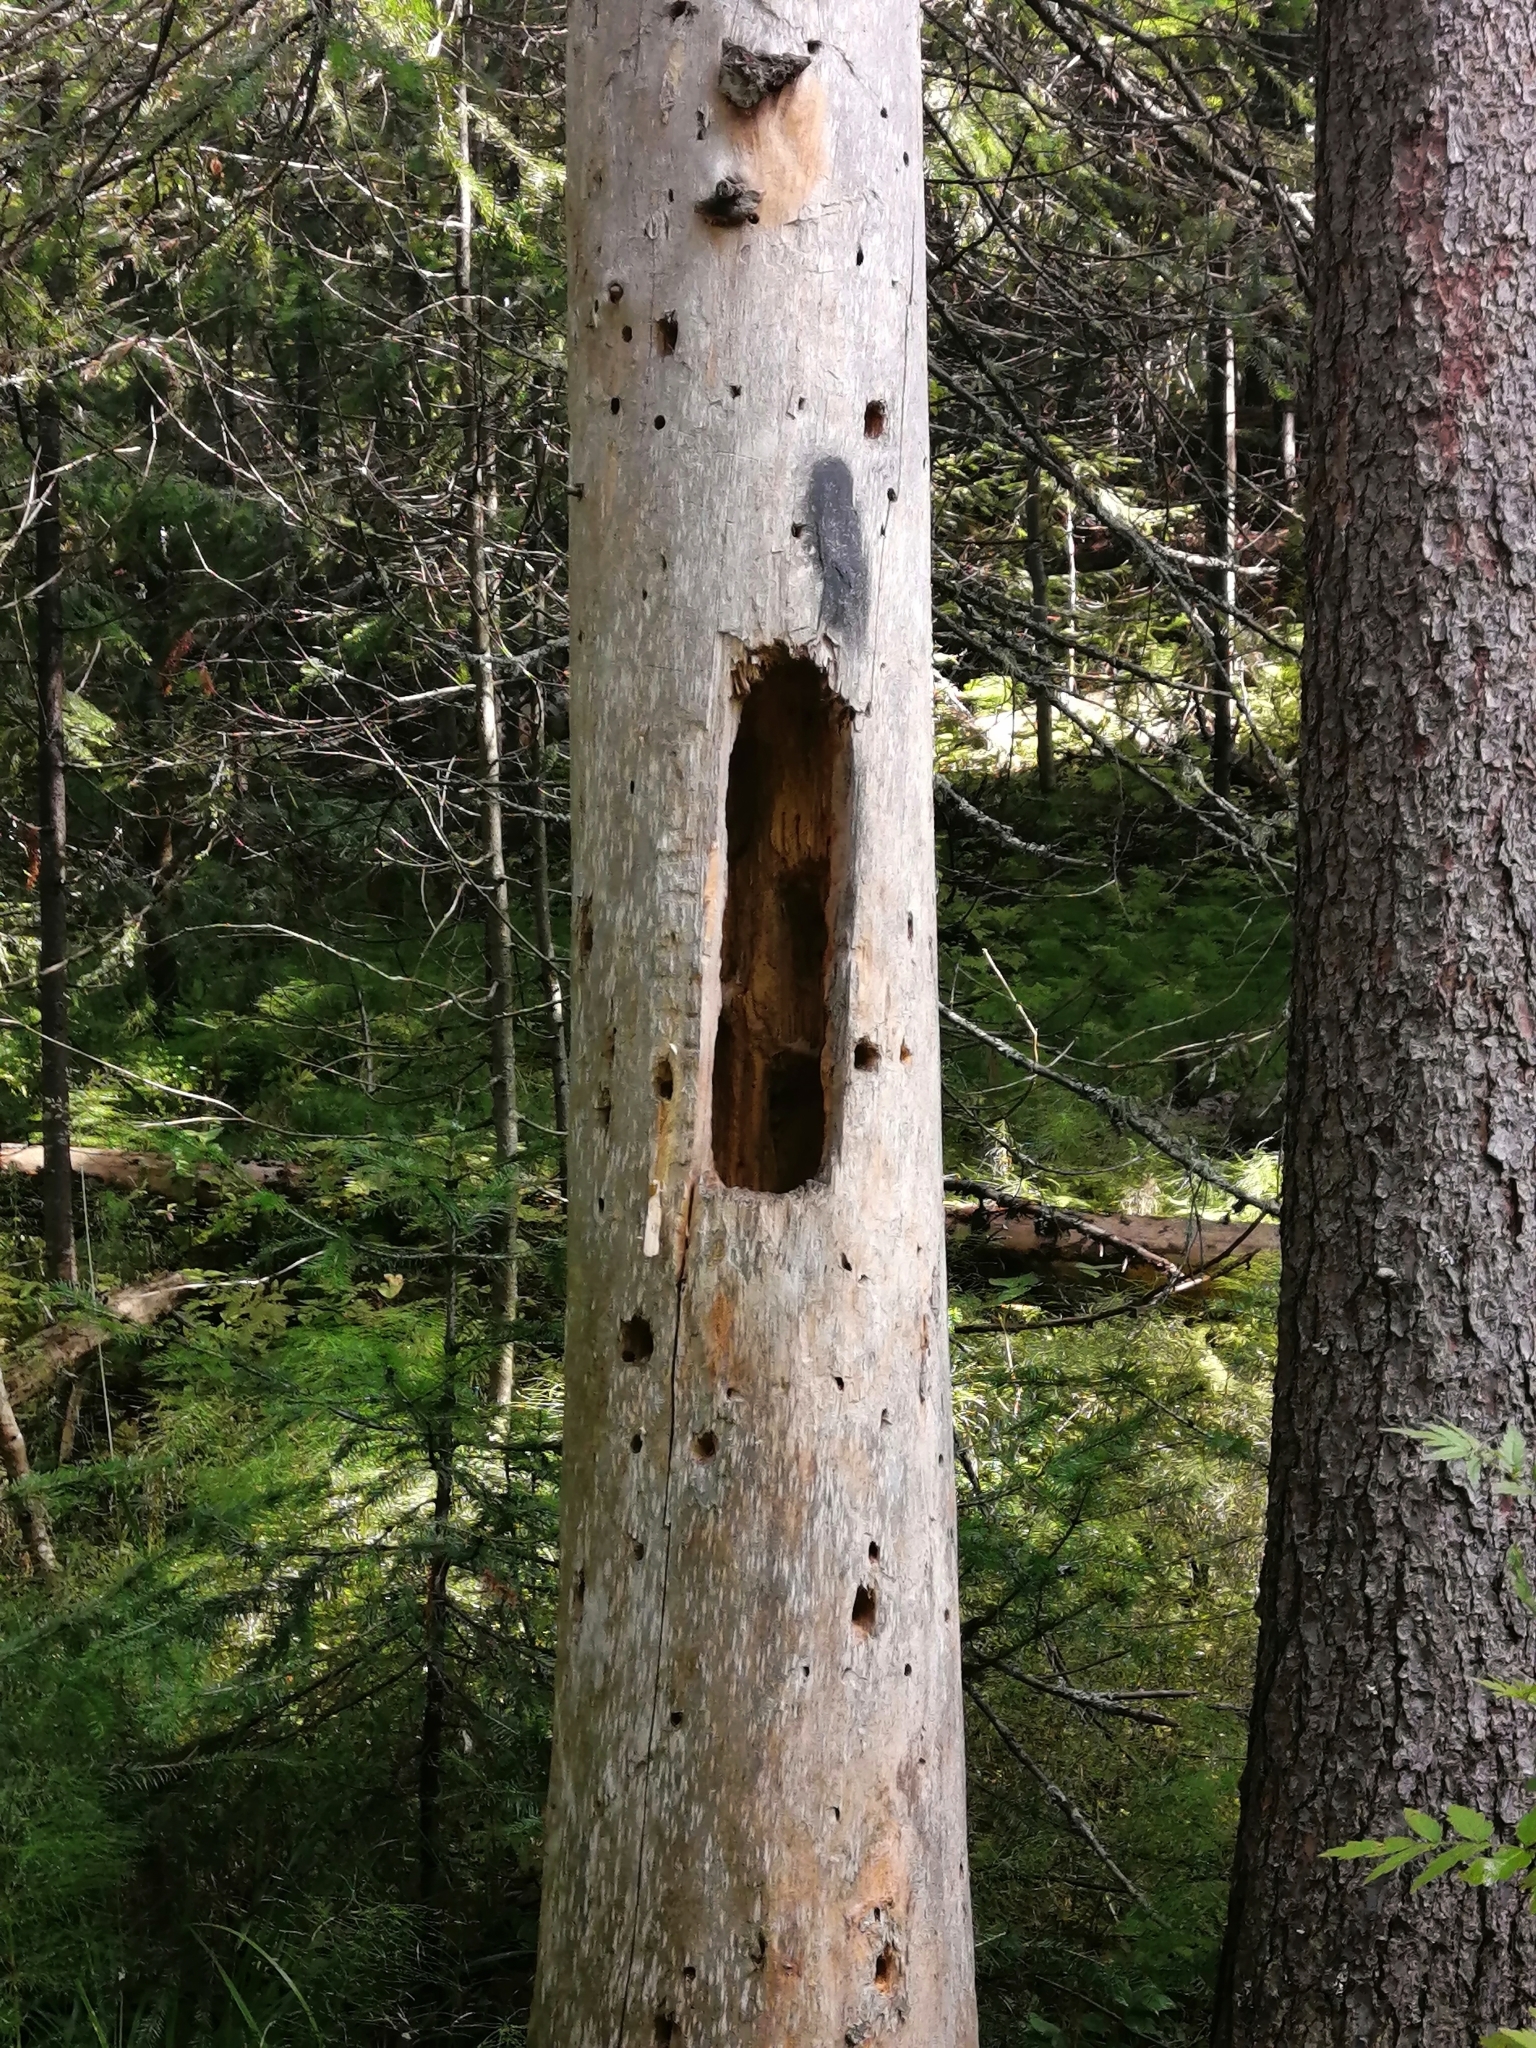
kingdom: Animalia
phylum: Chordata
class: Aves
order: Piciformes
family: Picidae
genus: Dryocopus
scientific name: Dryocopus martius
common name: Black woodpecker
